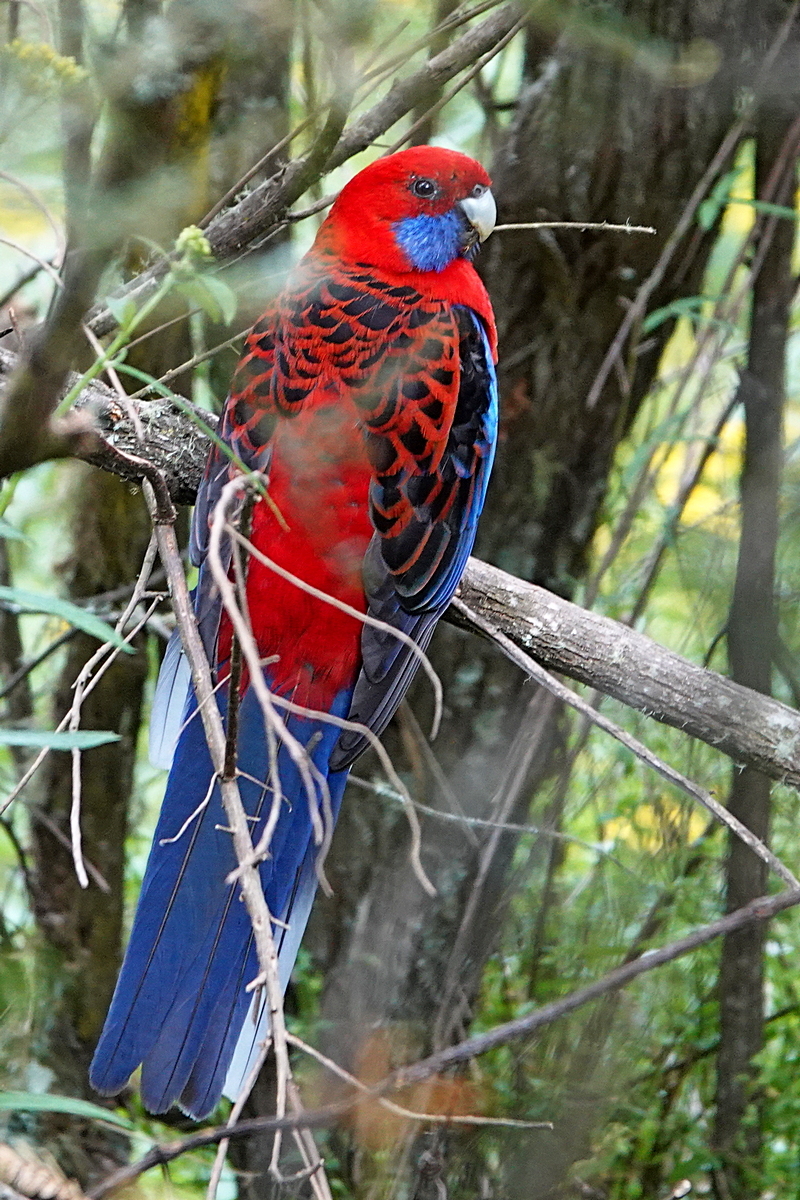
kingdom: Animalia
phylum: Chordata
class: Aves
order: Psittaciformes
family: Psittacidae
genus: Platycercus
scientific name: Platycercus elegans
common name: Crimson rosella
